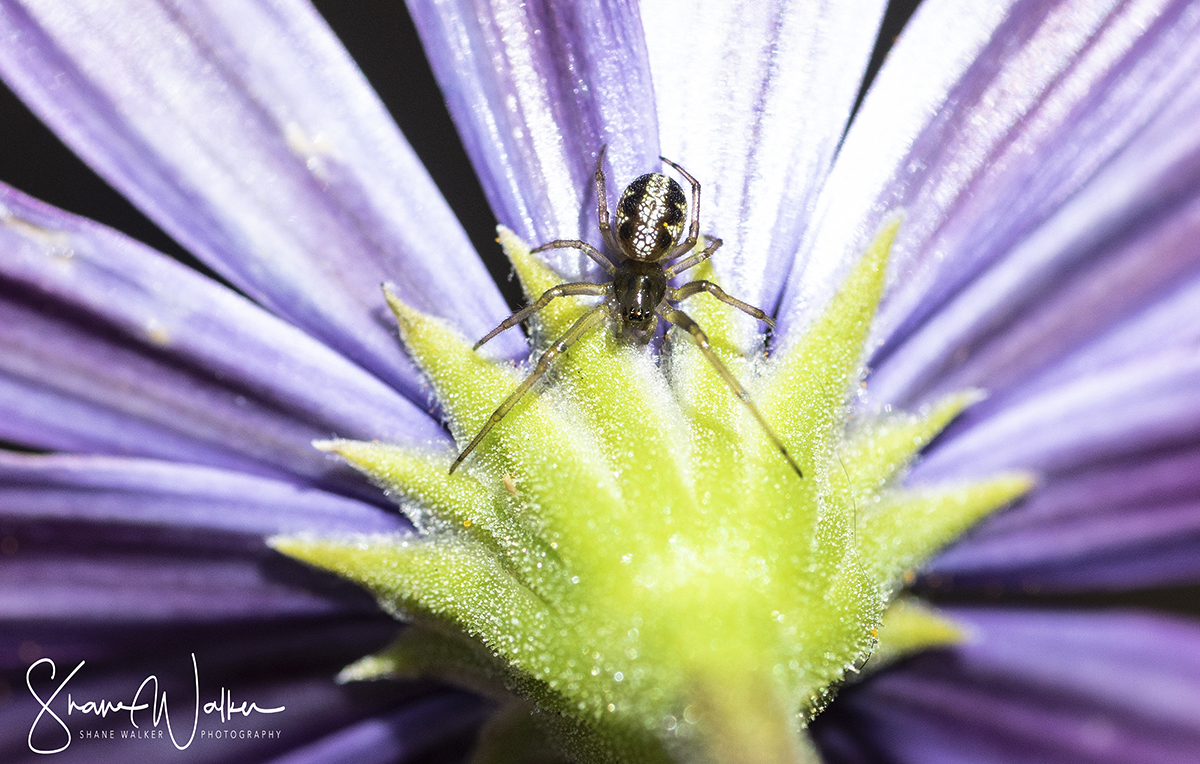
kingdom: Animalia
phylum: Arthropoda
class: Arachnida
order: Araneae
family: Araneidae
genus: Phonognatha
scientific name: Phonognatha graeffei
